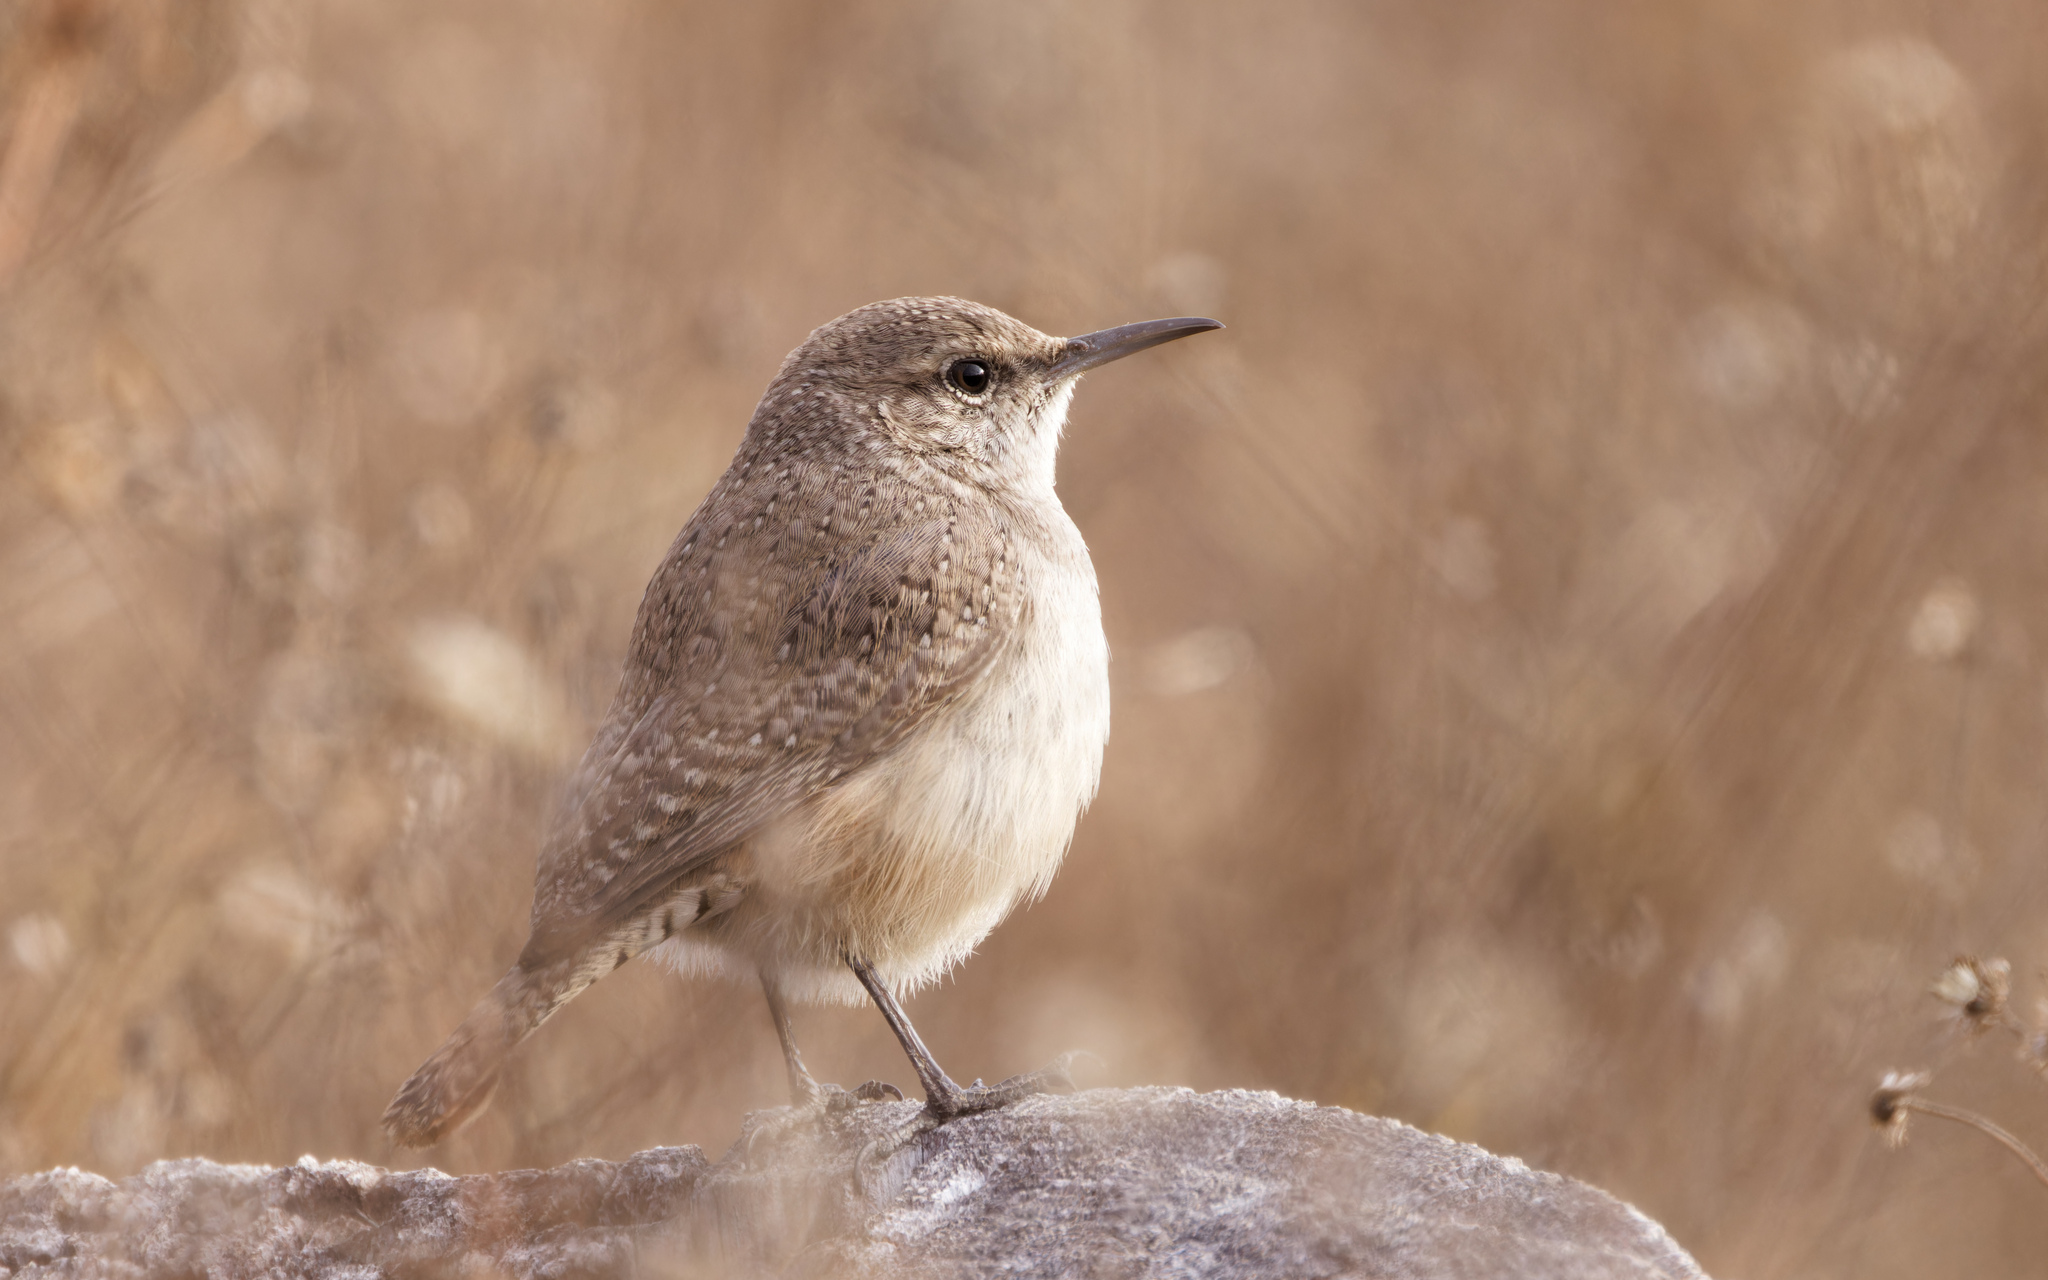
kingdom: Animalia
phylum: Chordata
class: Aves
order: Passeriformes
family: Troglodytidae
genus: Salpinctes
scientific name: Salpinctes obsoletus
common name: Rock wren
